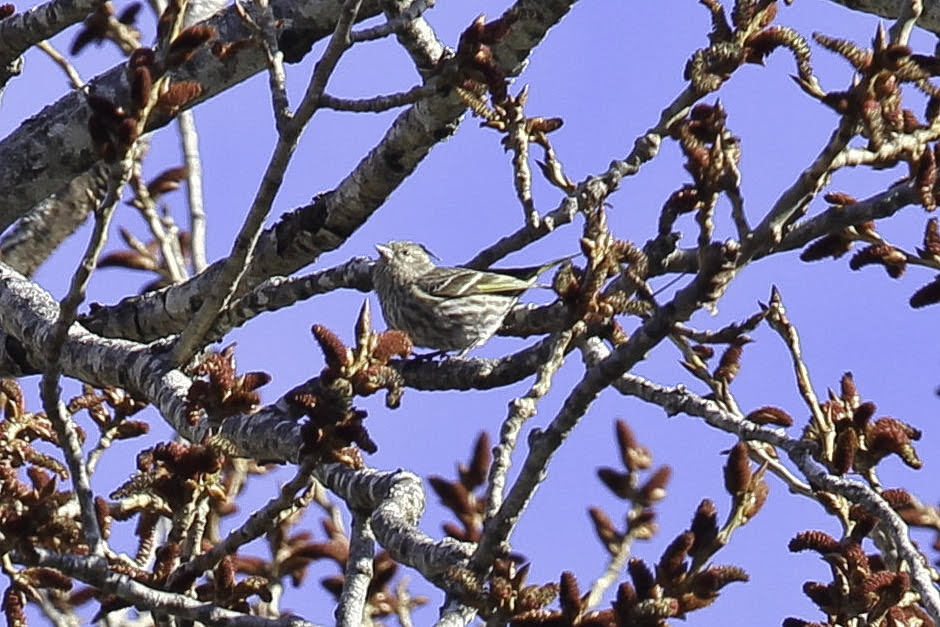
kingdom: Animalia
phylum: Chordata
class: Aves
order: Passeriformes
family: Fringillidae
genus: Spinus
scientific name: Spinus pinus
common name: Pine siskin
